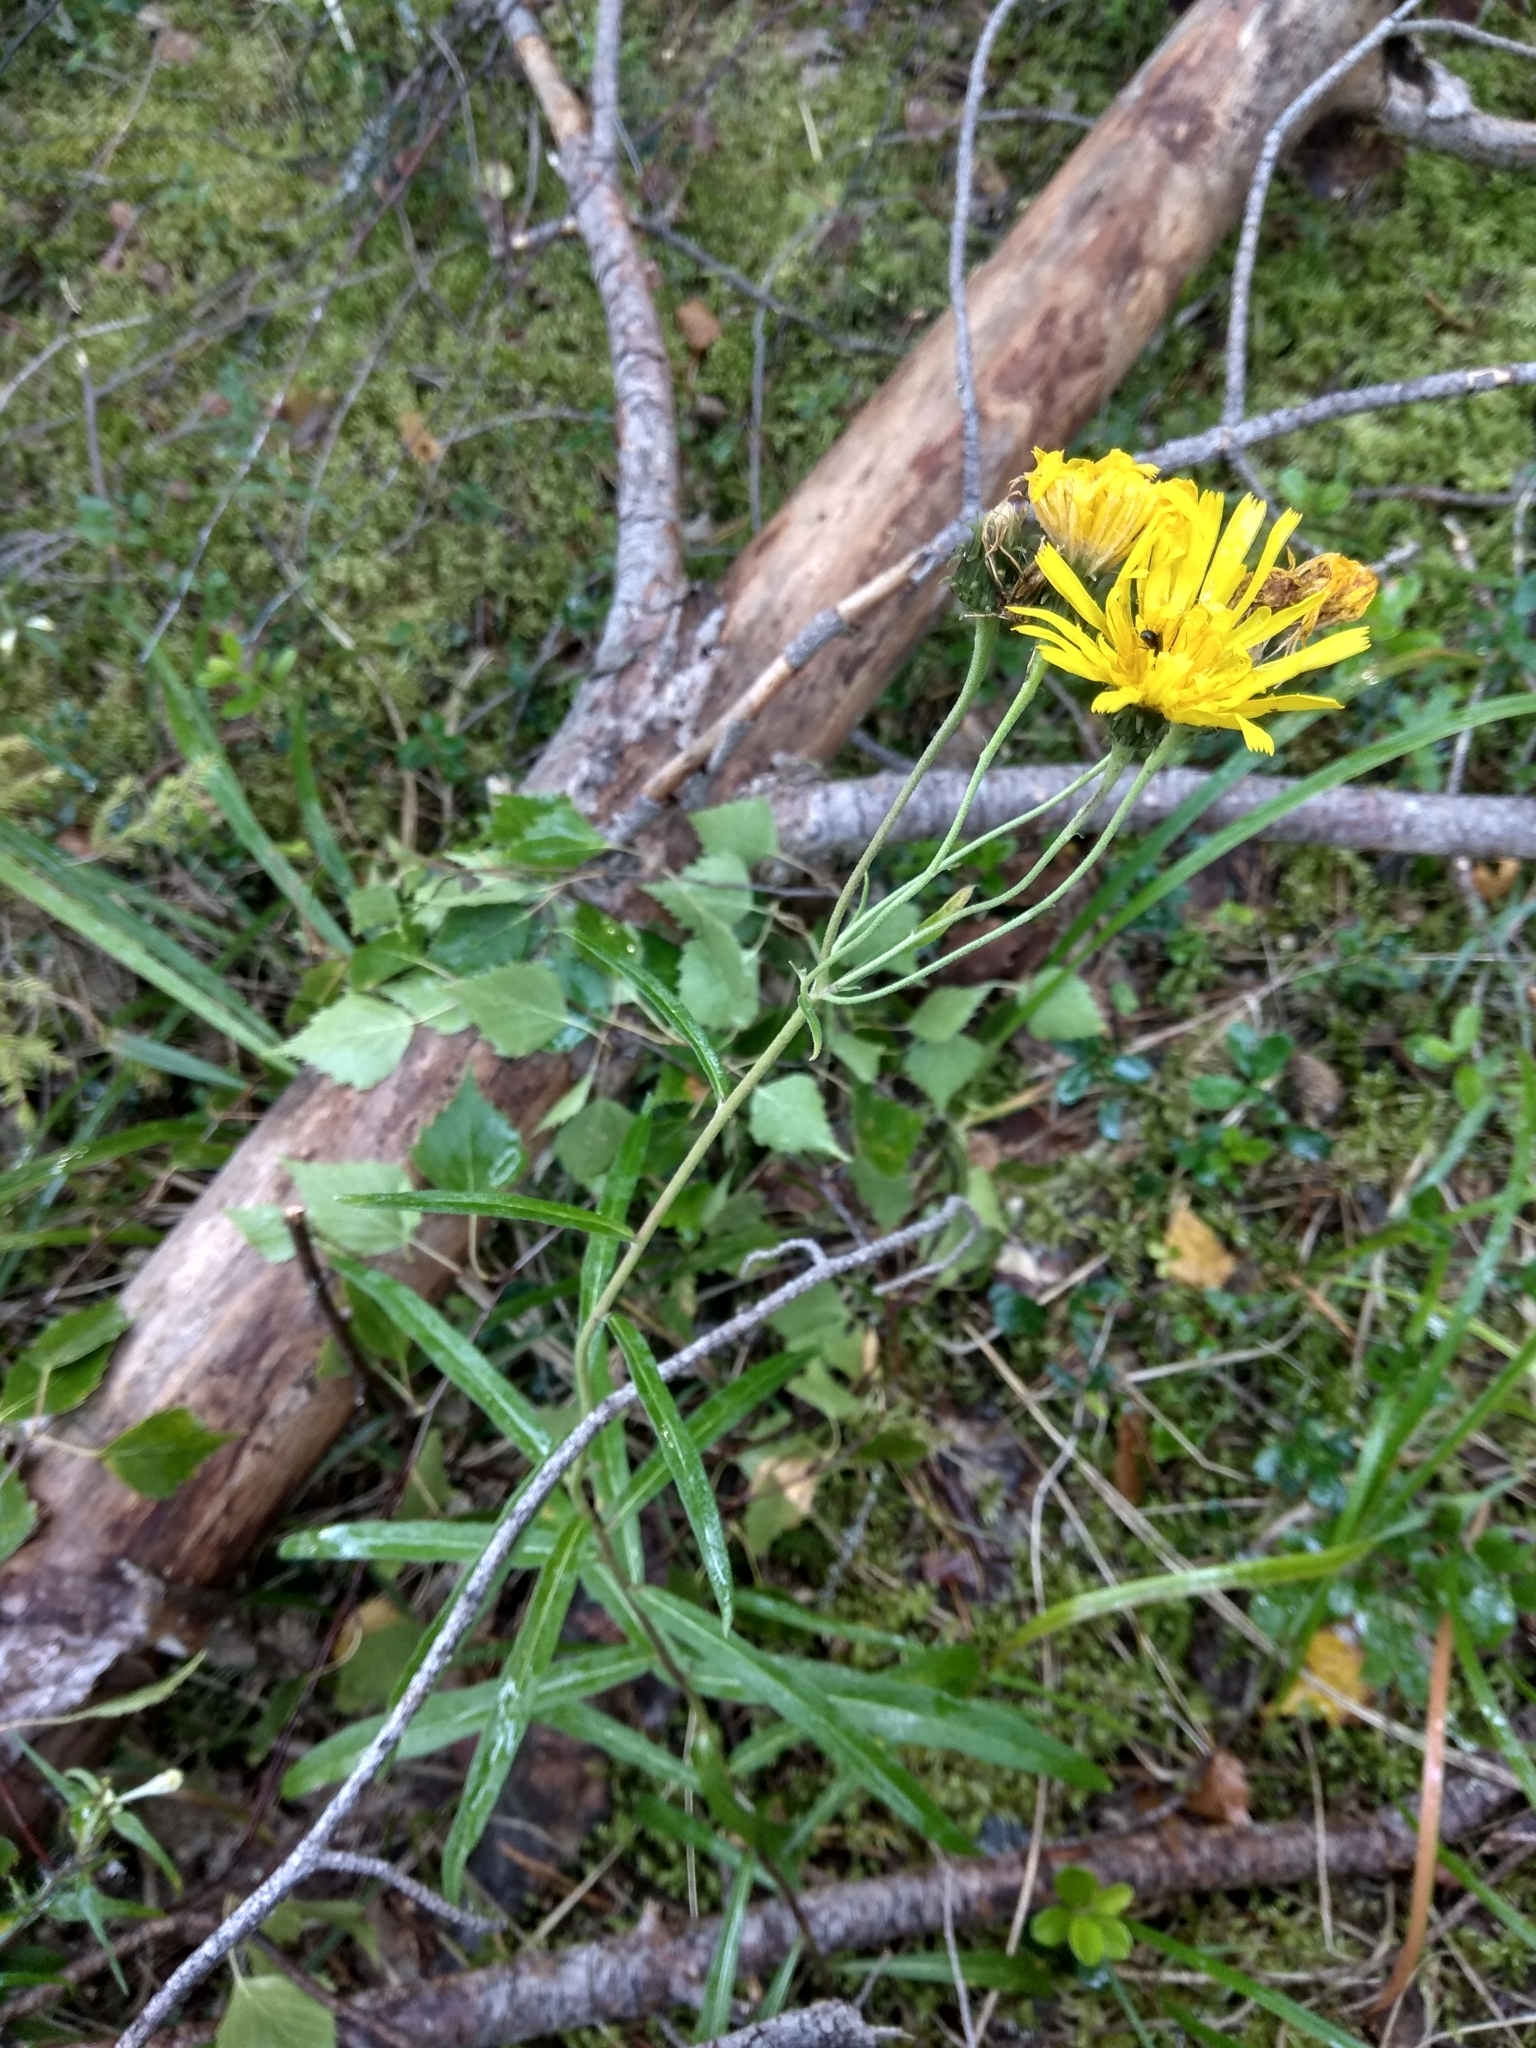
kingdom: Plantae
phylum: Tracheophyta
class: Magnoliopsida
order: Asterales
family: Asteraceae
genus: Hieracium
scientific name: Hieracium umbellatum
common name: Northern hawkweed
